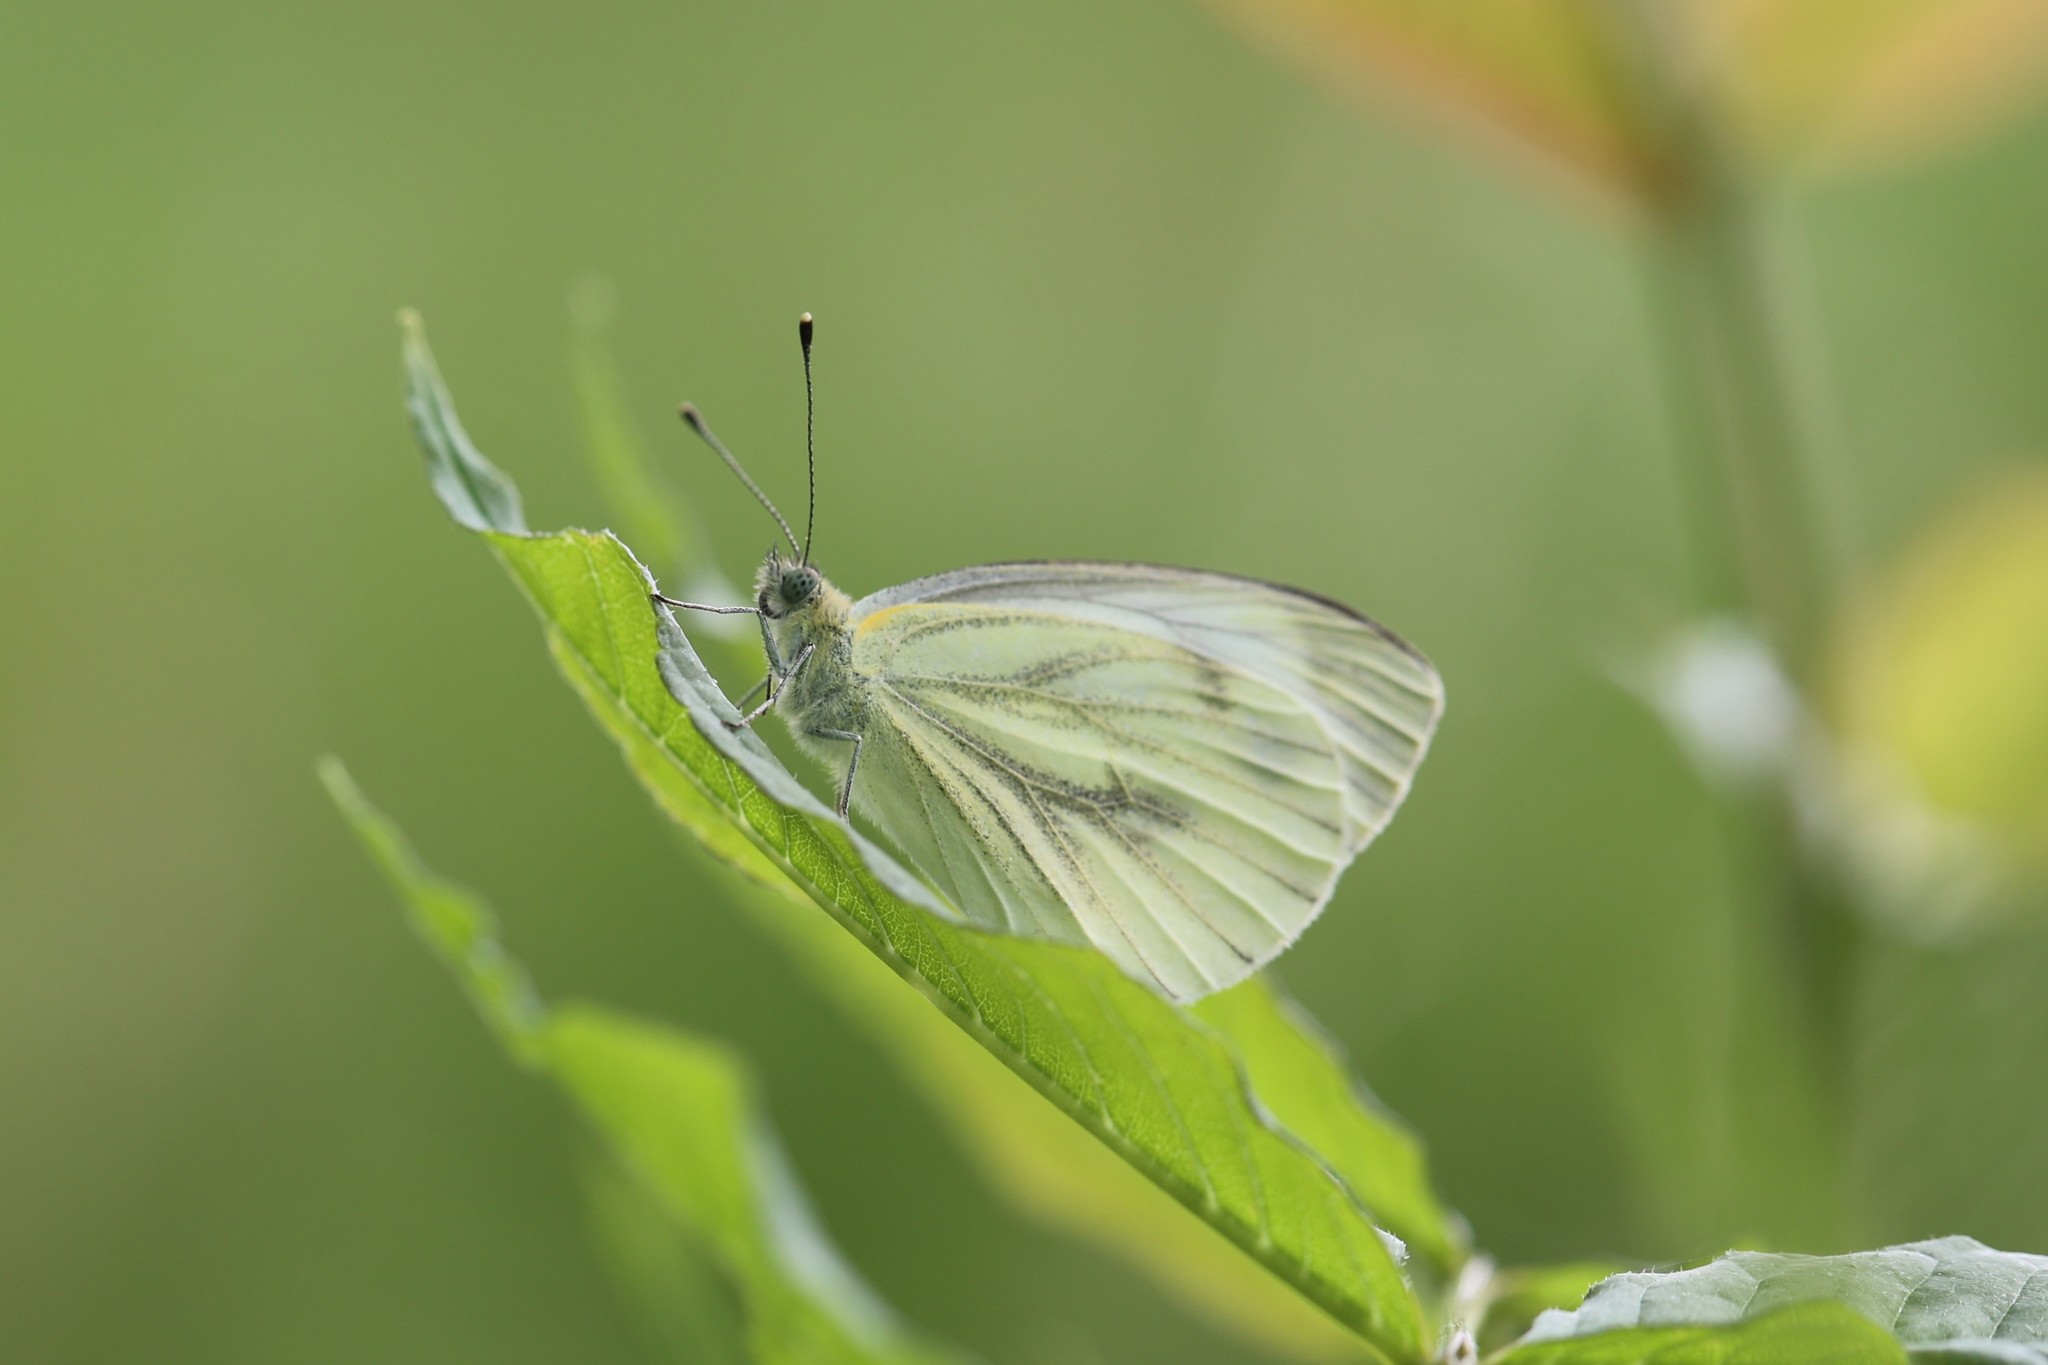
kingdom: Animalia
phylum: Arthropoda
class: Insecta
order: Lepidoptera
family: Pieridae
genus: Pieris
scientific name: Pieris napi
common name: Green-veined white
